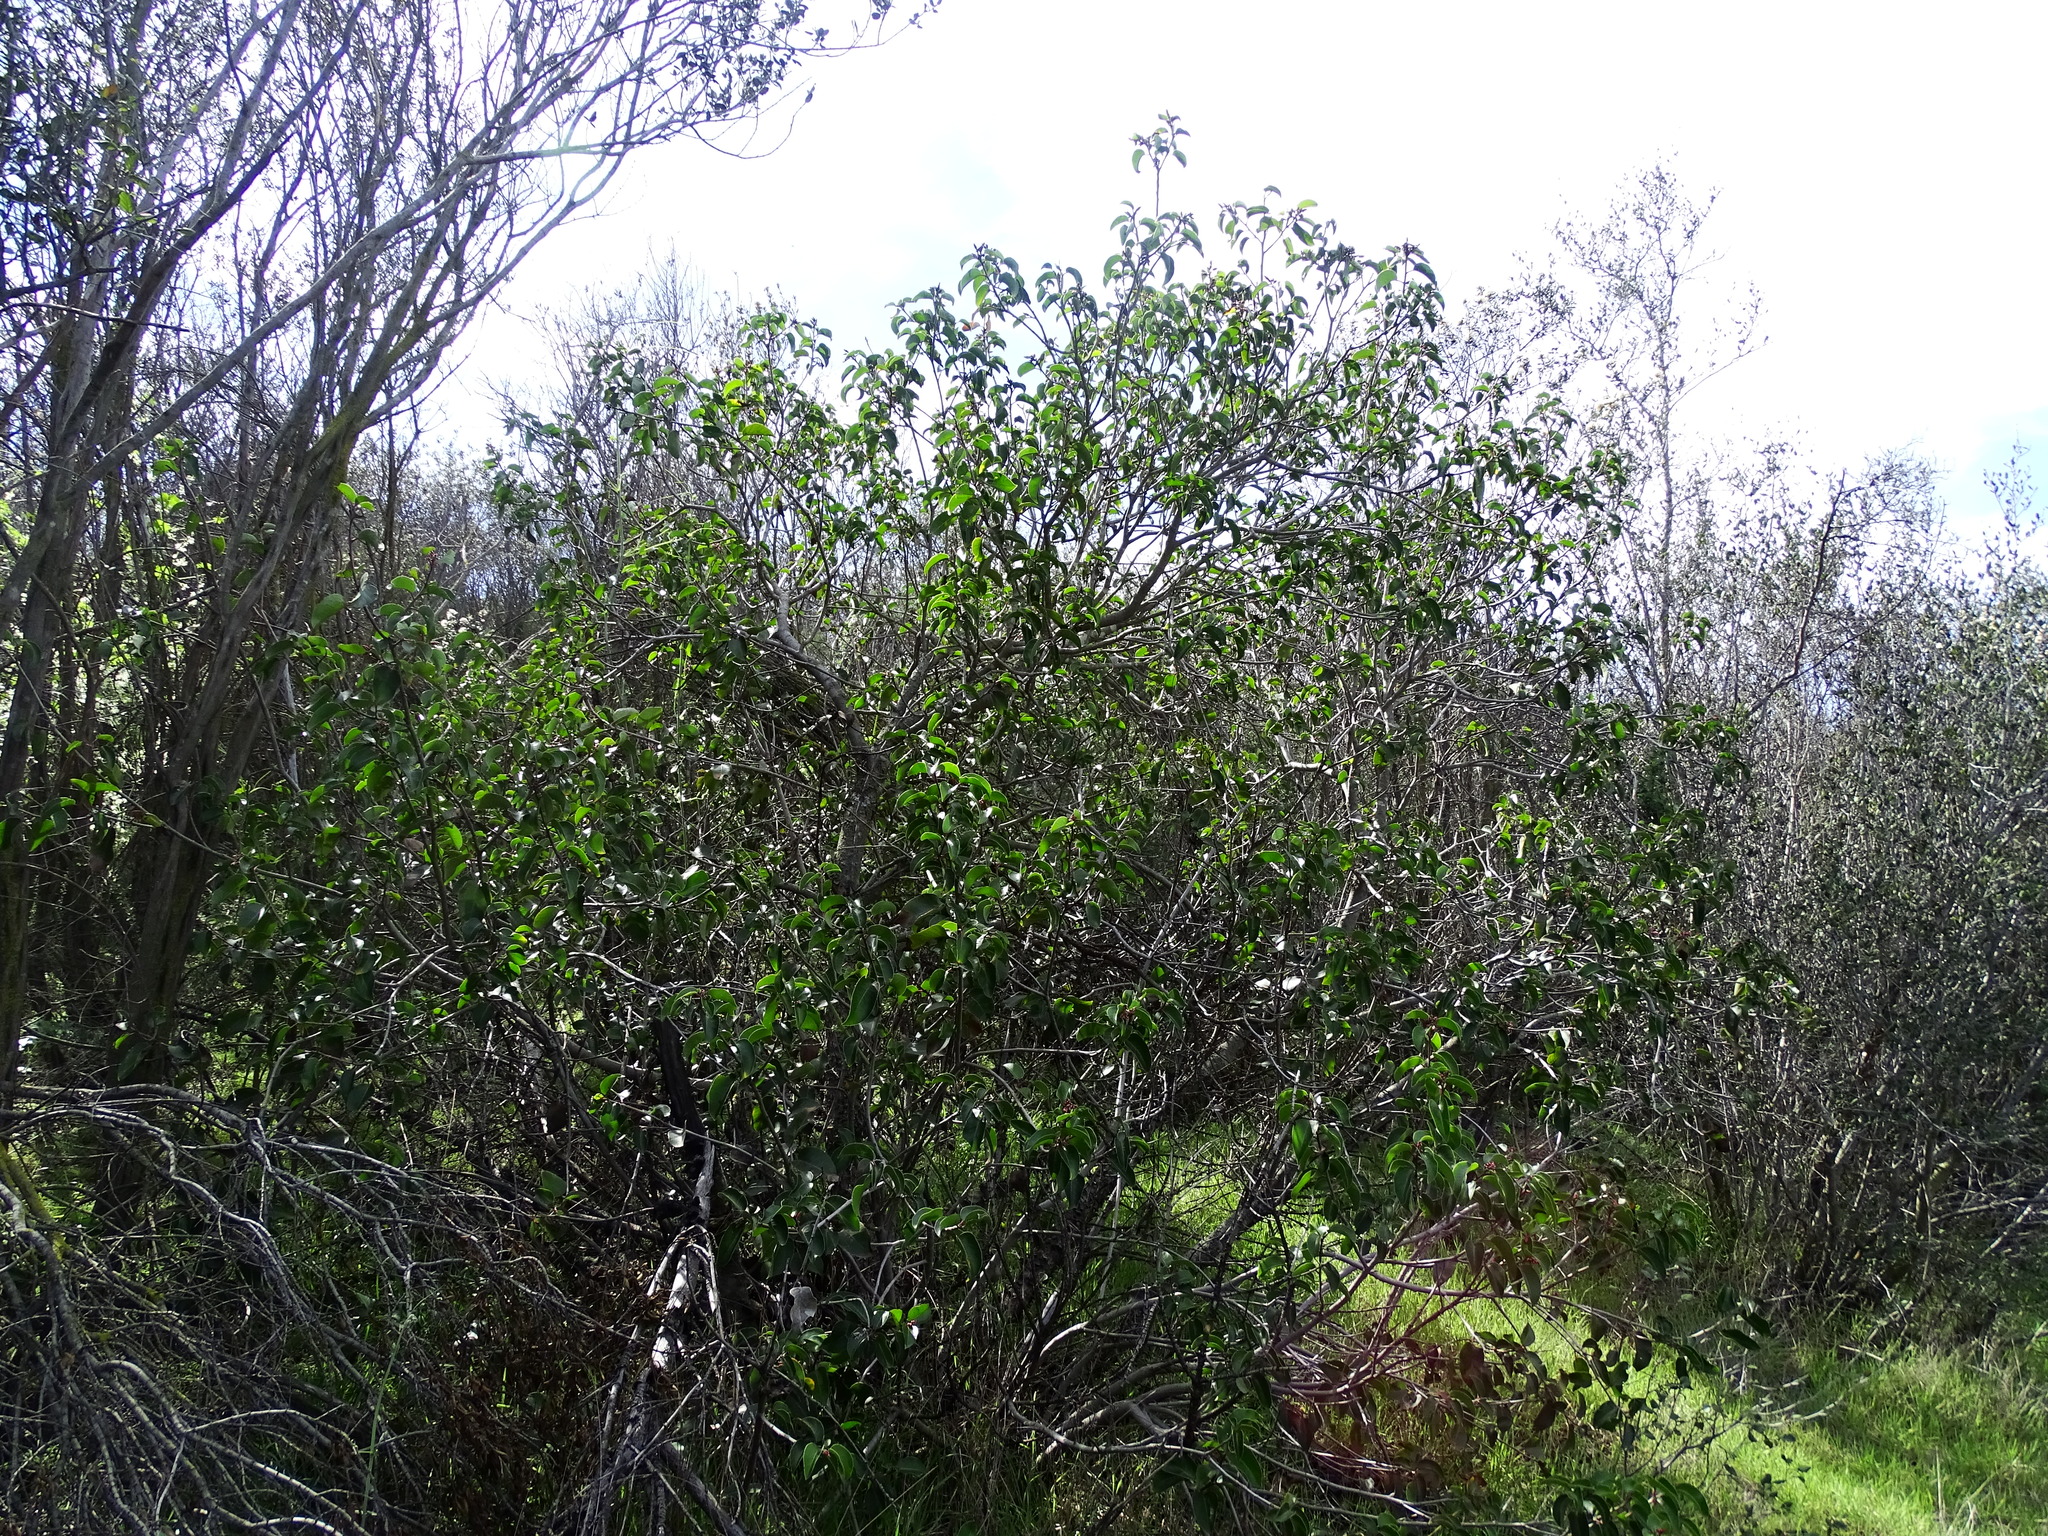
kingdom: Plantae
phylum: Tracheophyta
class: Magnoliopsida
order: Sapindales
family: Anacardiaceae
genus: Rhus
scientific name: Rhus ovata
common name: Sugar sumac
